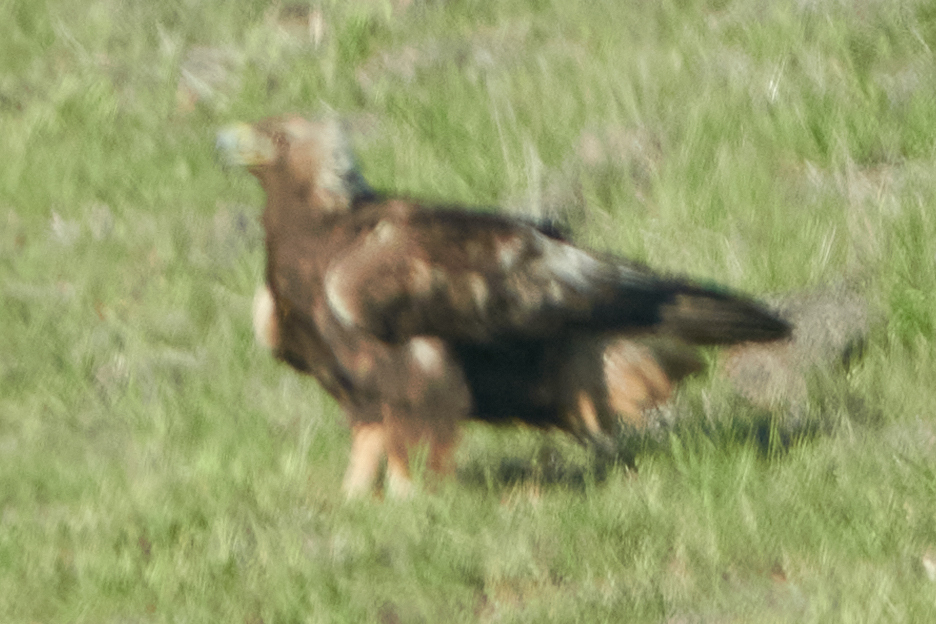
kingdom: Animalia
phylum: Chordata
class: Aves
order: Accipitriformes
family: Accipitridae
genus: Aquila
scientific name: Aquila chrysaetos
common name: Golden eagle
